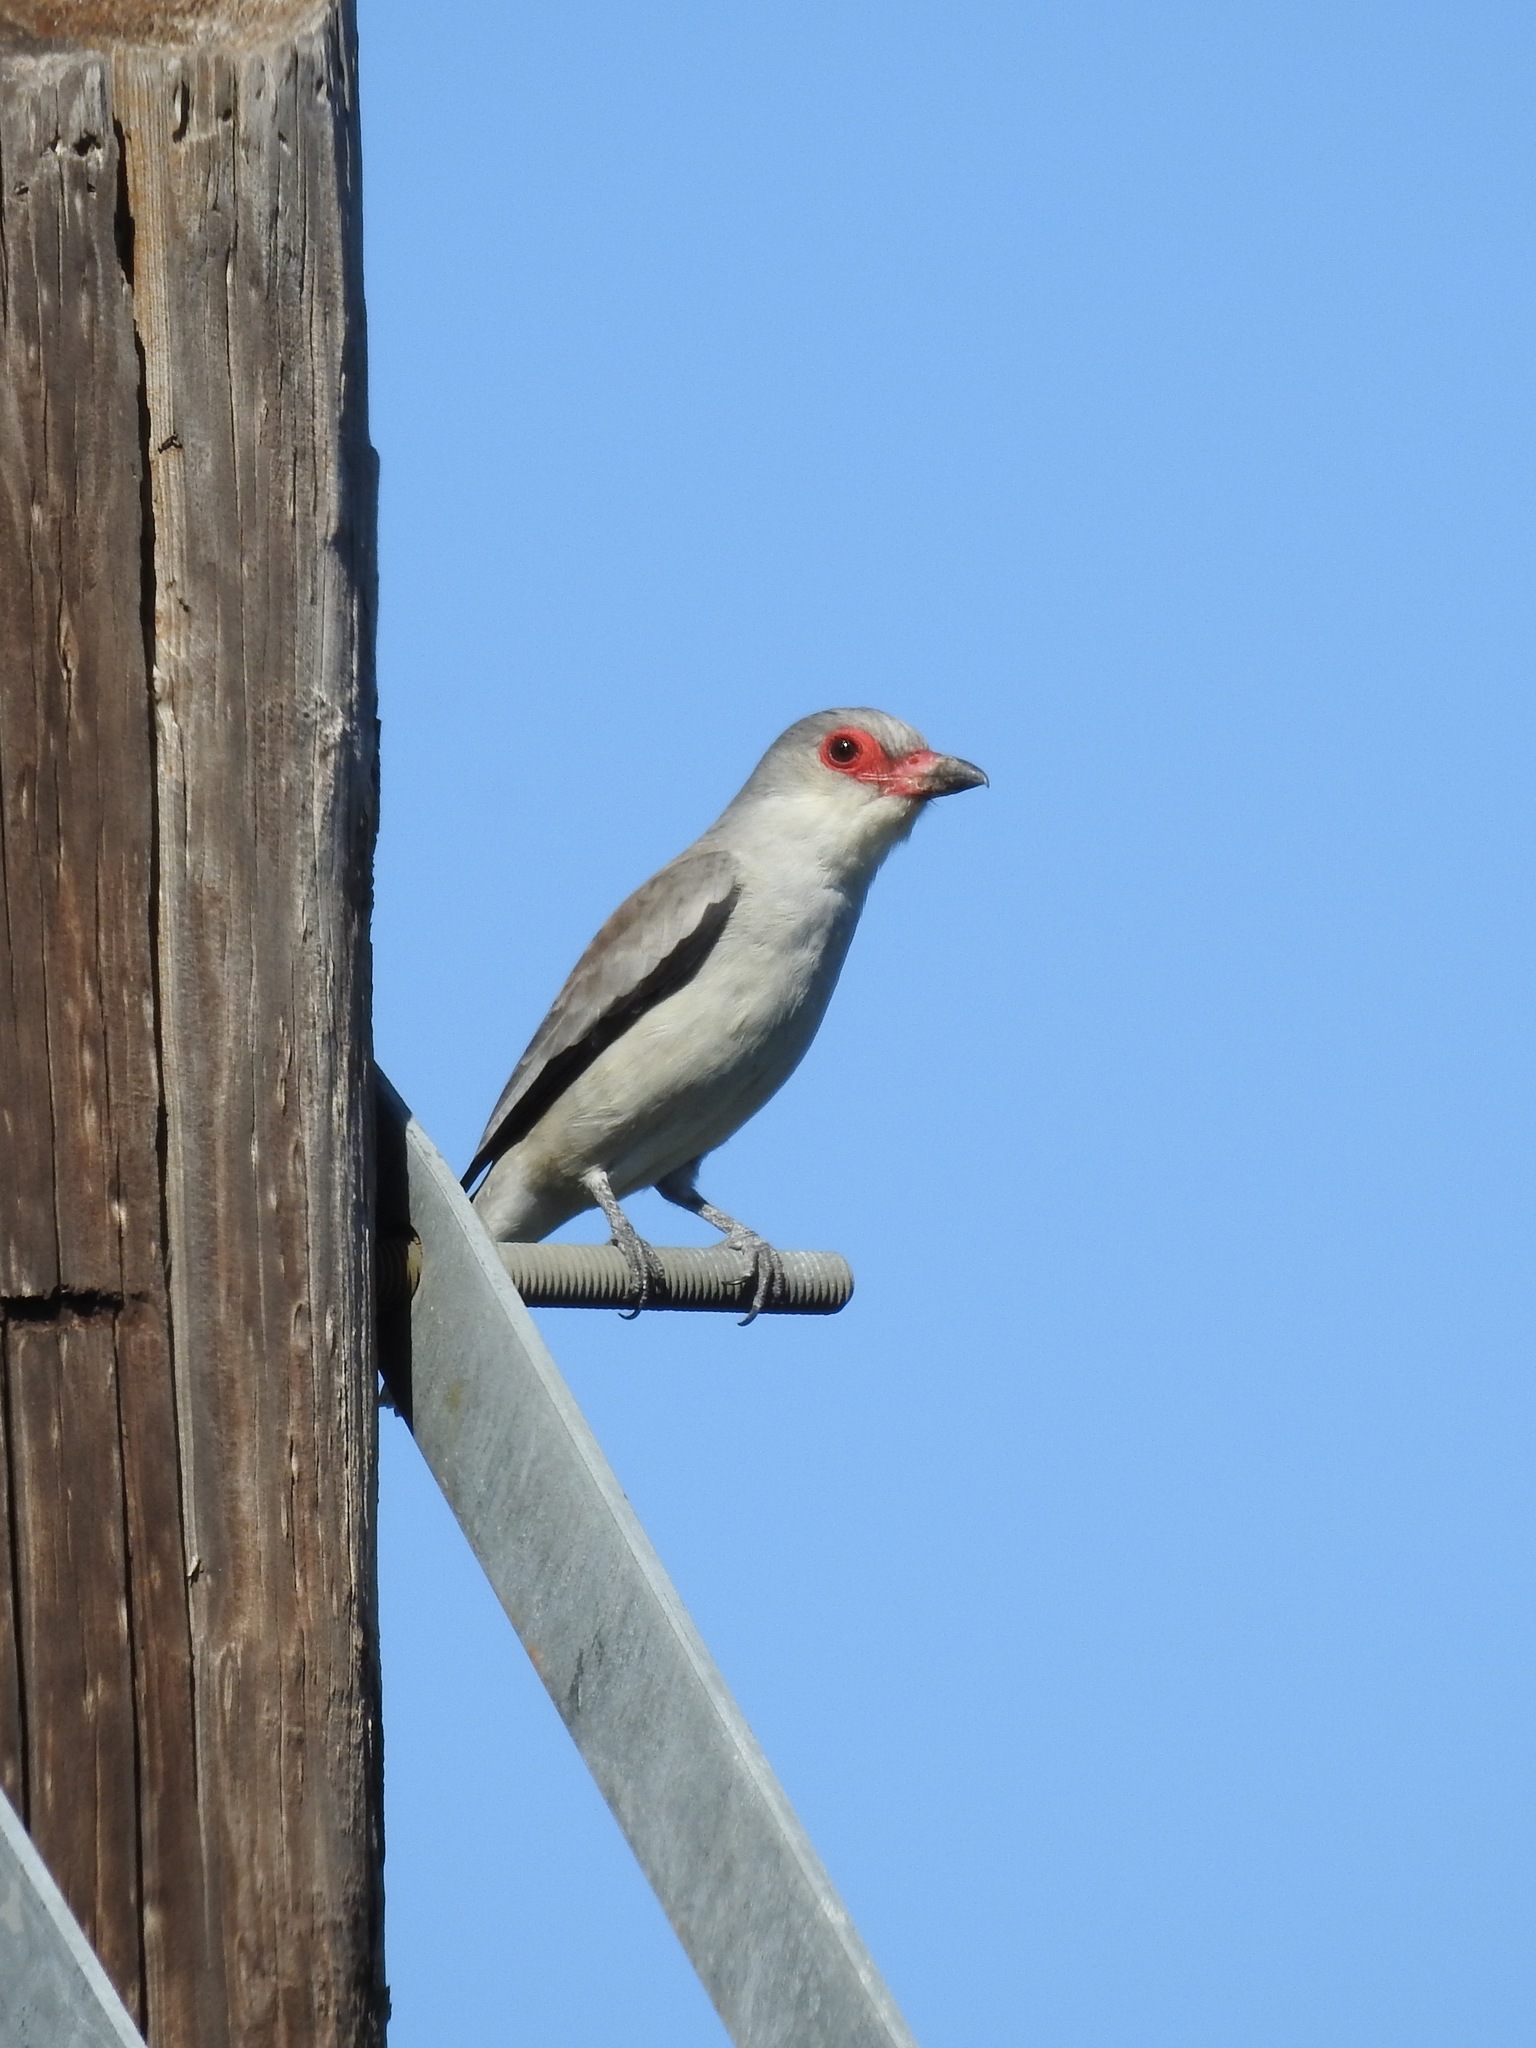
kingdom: Animalia
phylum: Chordata
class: Aves
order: Passeriformes
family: Cotingidae
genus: Tityra
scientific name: Tityra semifasciata
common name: Masked tityra
